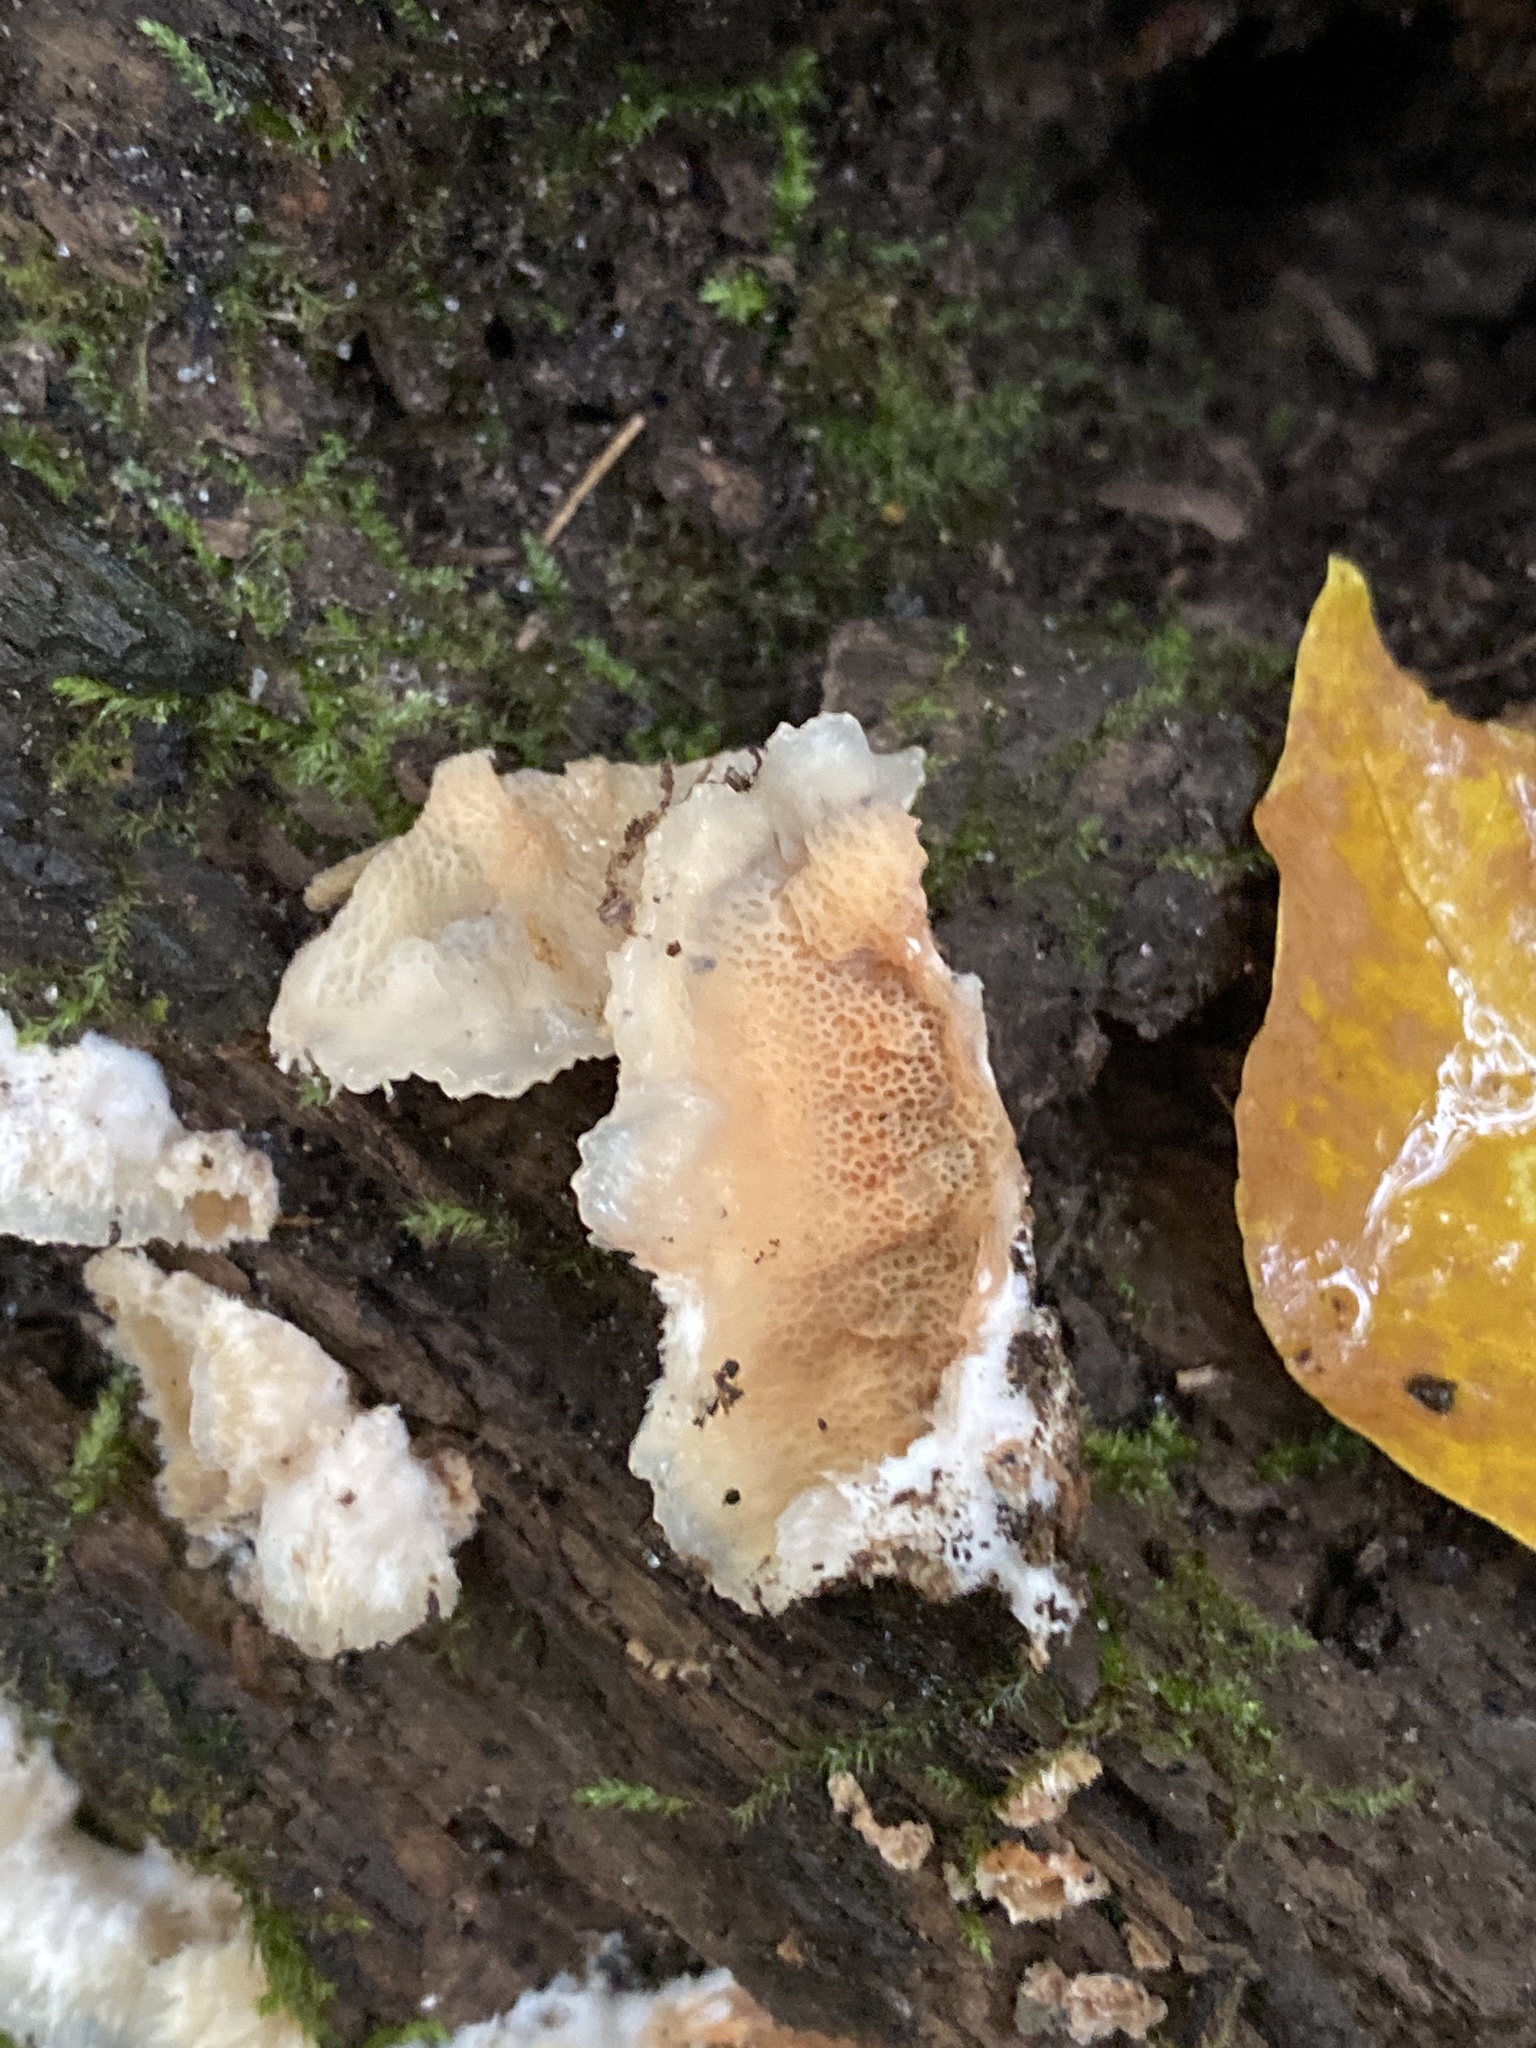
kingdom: Fungi
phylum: Basidiomycota
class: Agaricomycetes
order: Polyporales
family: Meruliaceae
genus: Phlebia
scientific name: Phlebia tremellosa
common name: Jelly rot
